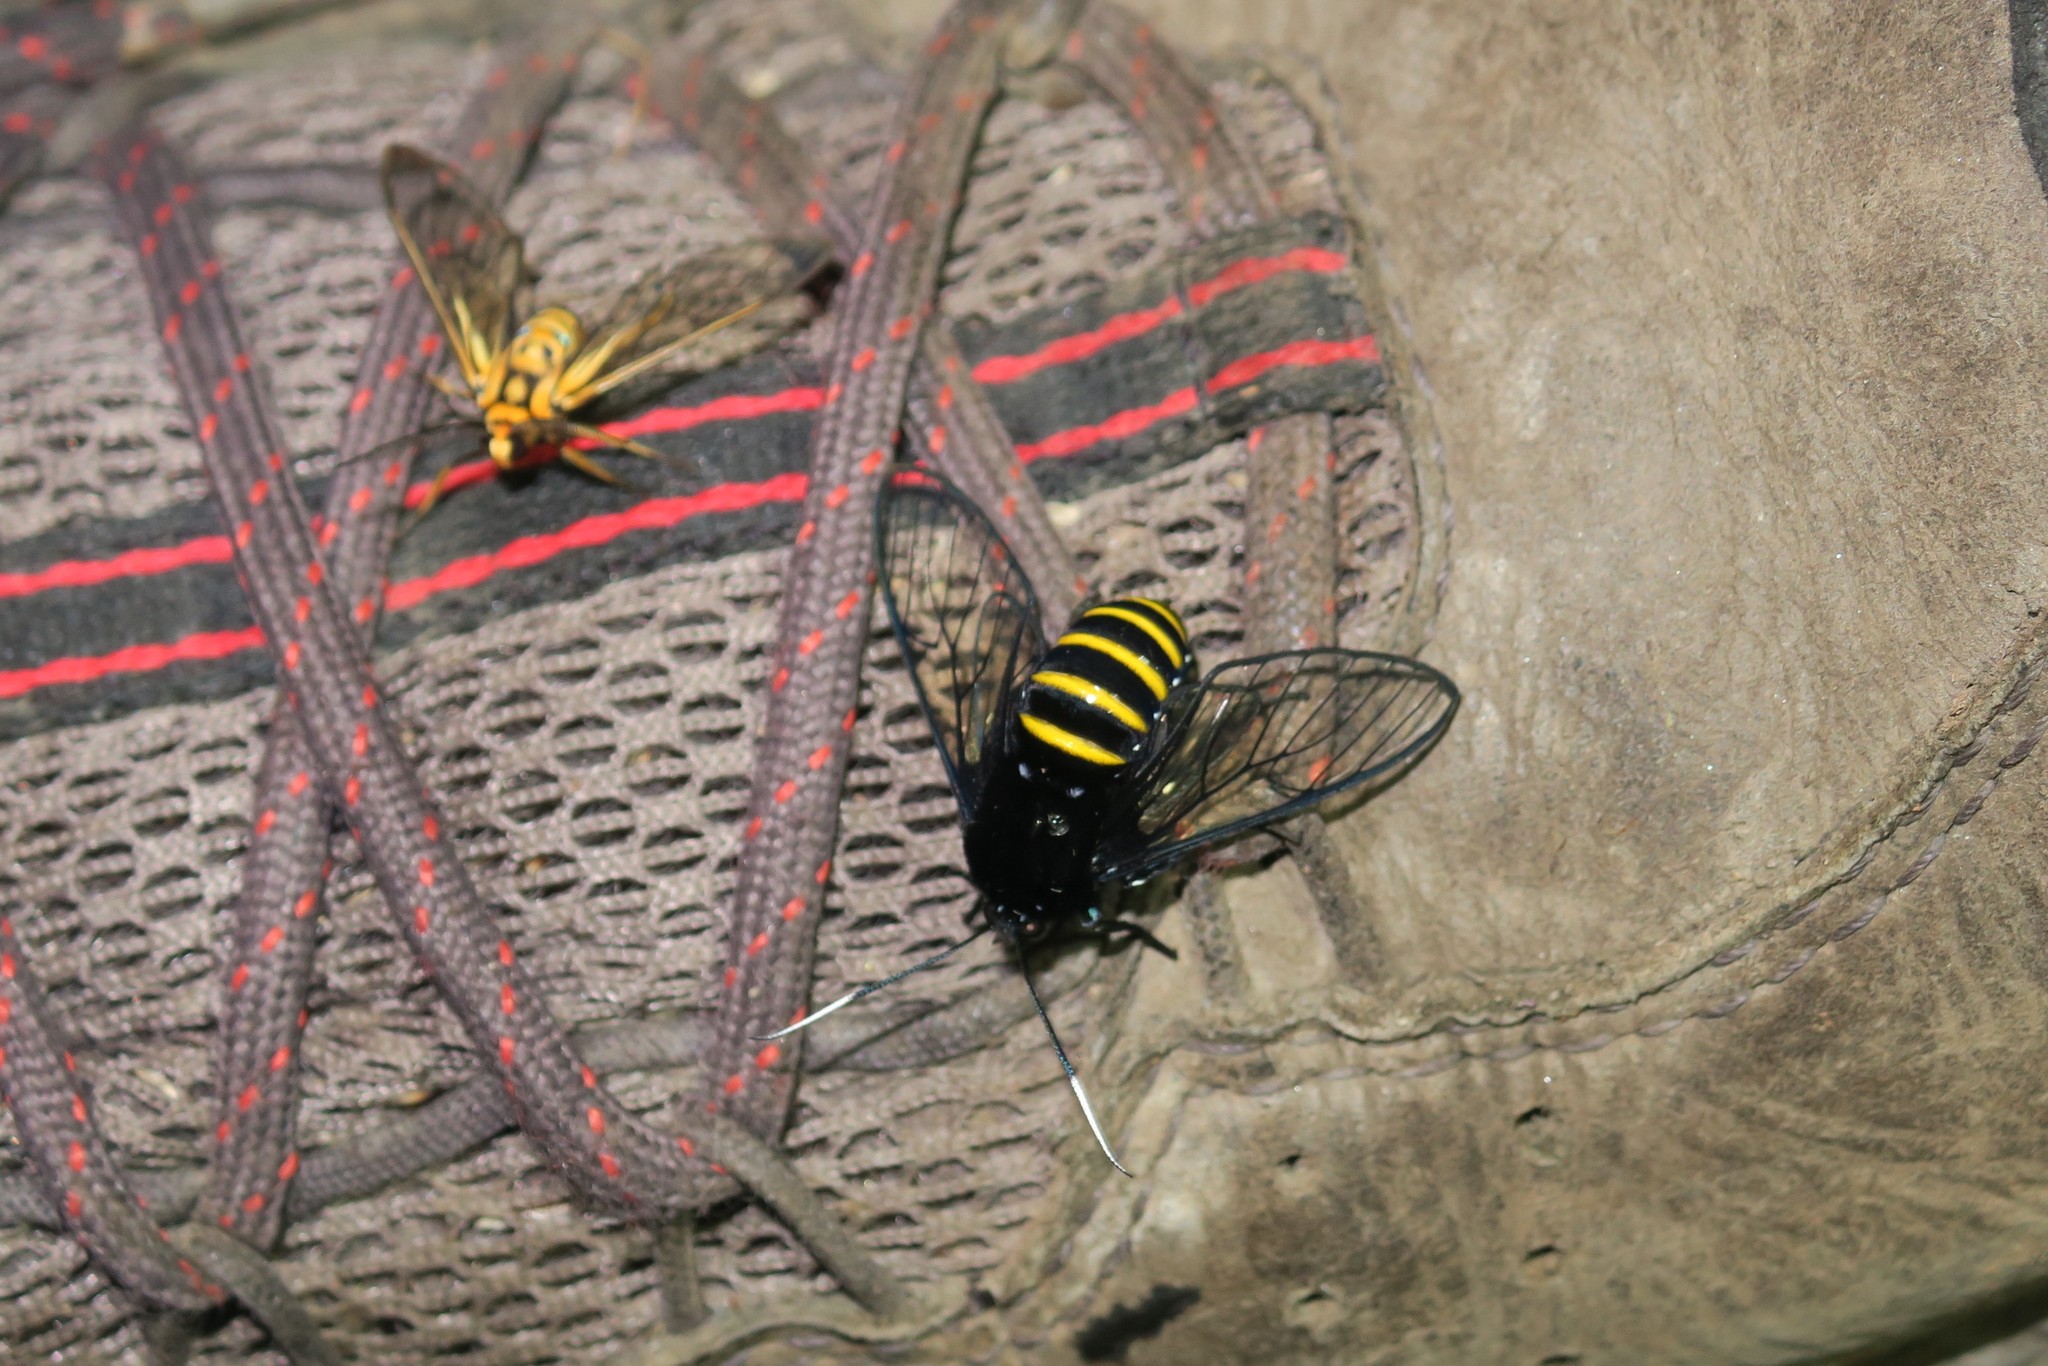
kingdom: Animalia
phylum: Arthropoda
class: Insecta
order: Lepidoptera
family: Erebidae
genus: Homoeocera
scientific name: Homoeocera crassa
